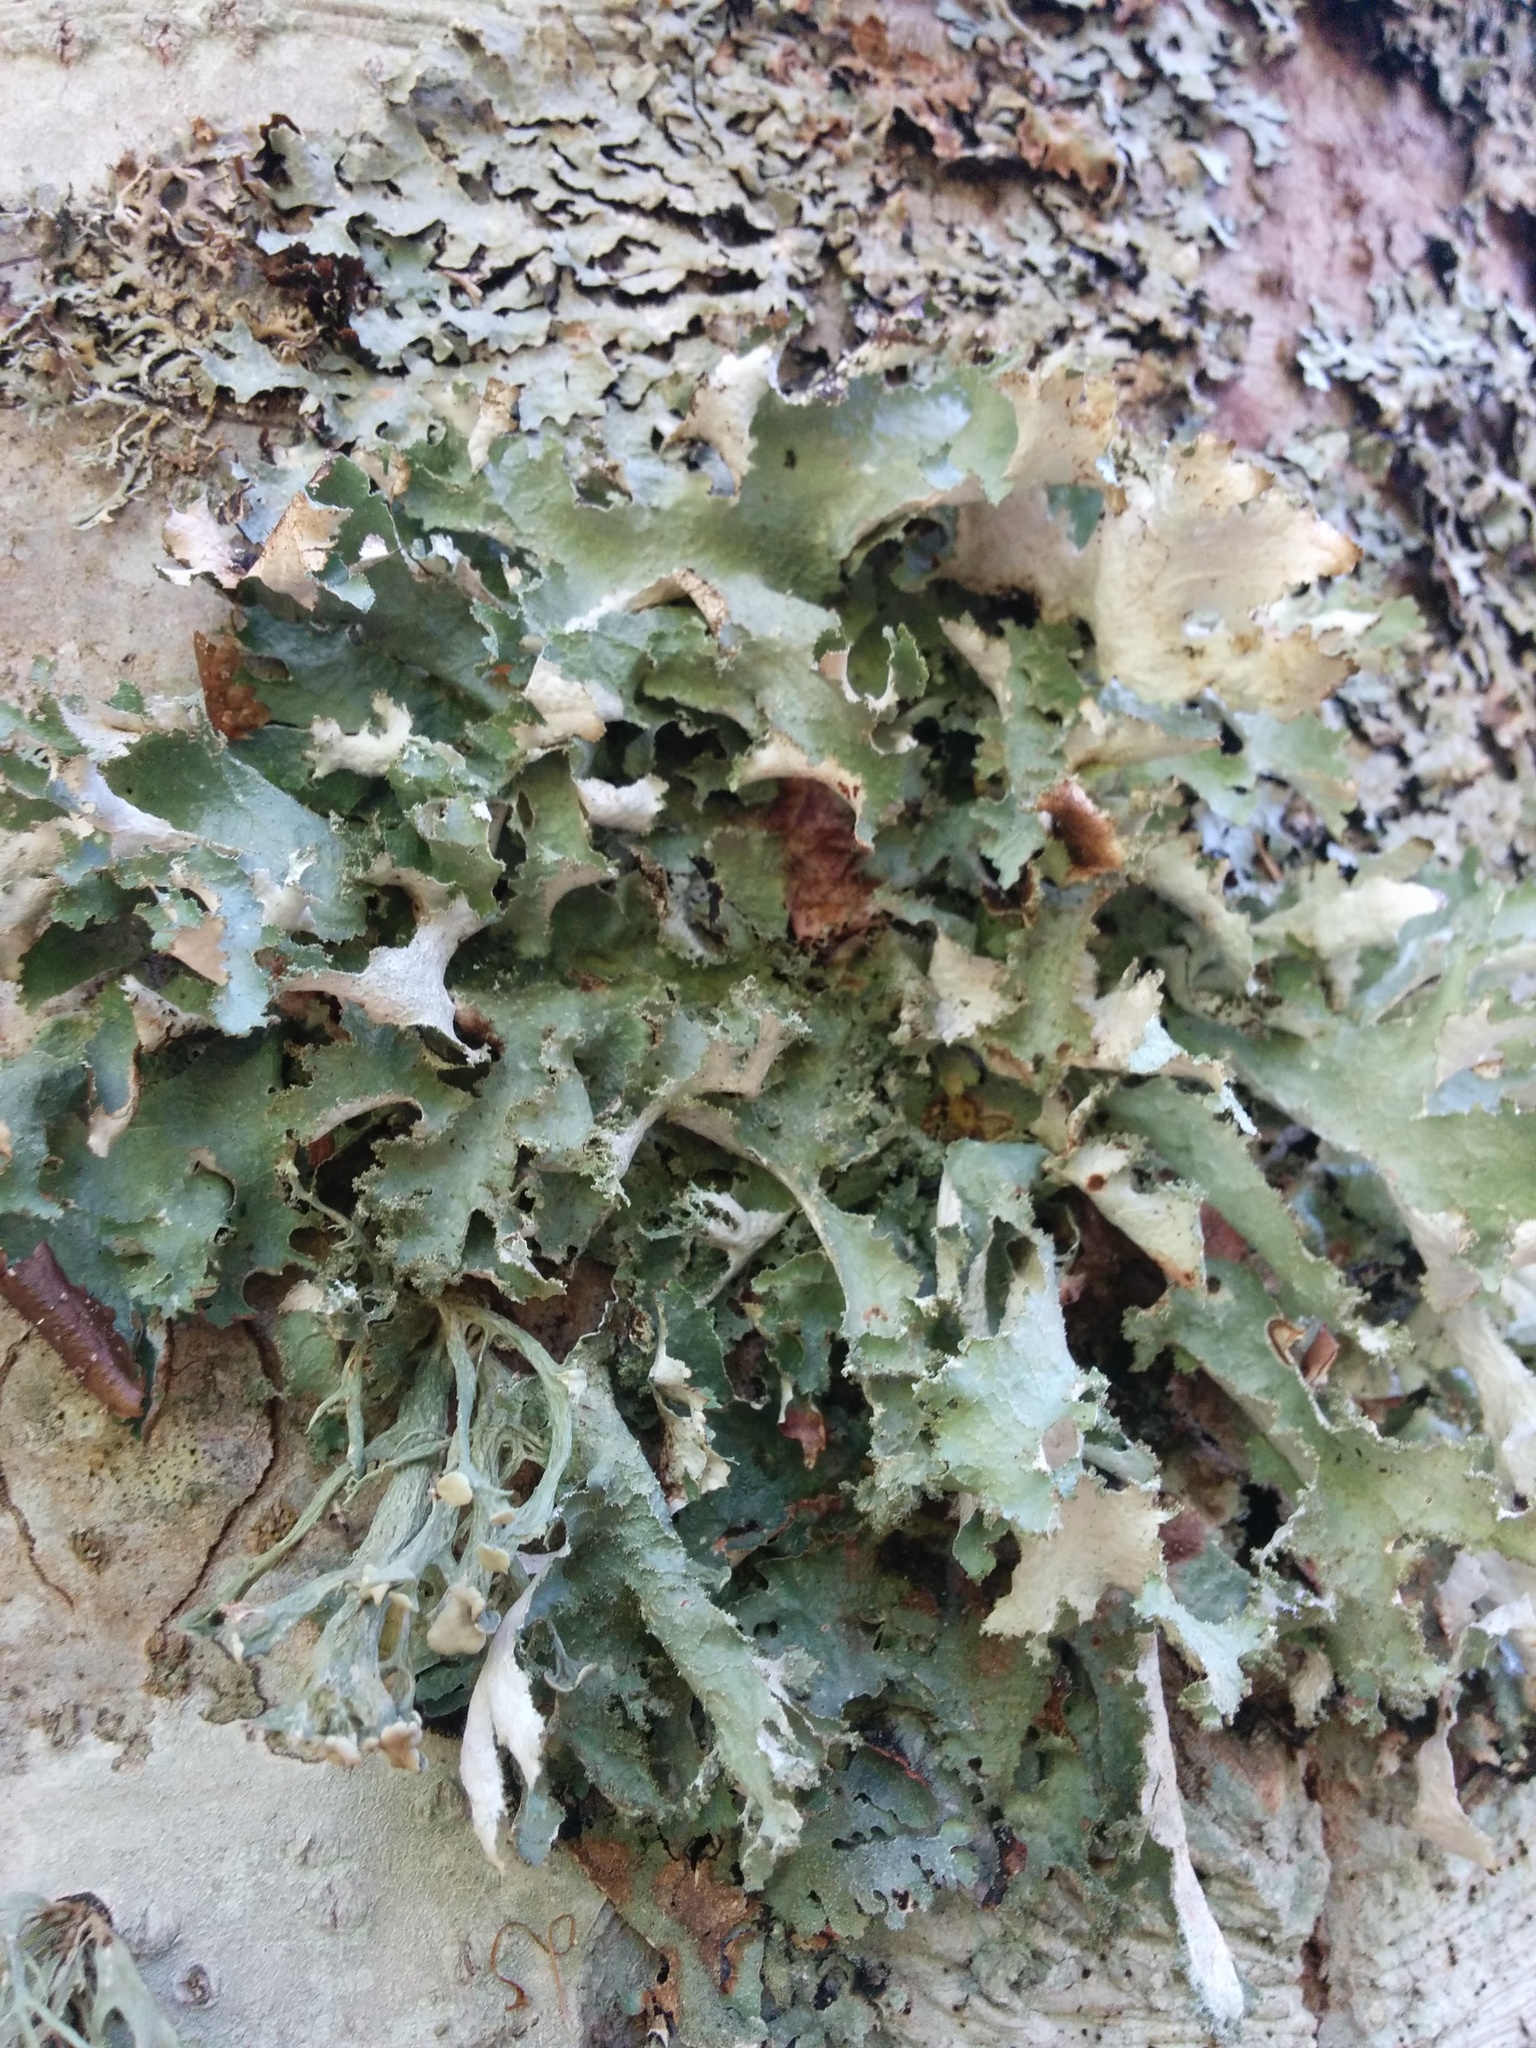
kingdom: Fungi
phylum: Ascomycota
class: Lecanoromycetes
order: Lecanorales
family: Parmeliaceae
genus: Platismatia
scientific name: Platismatia glauca
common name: Varied rag lichen
